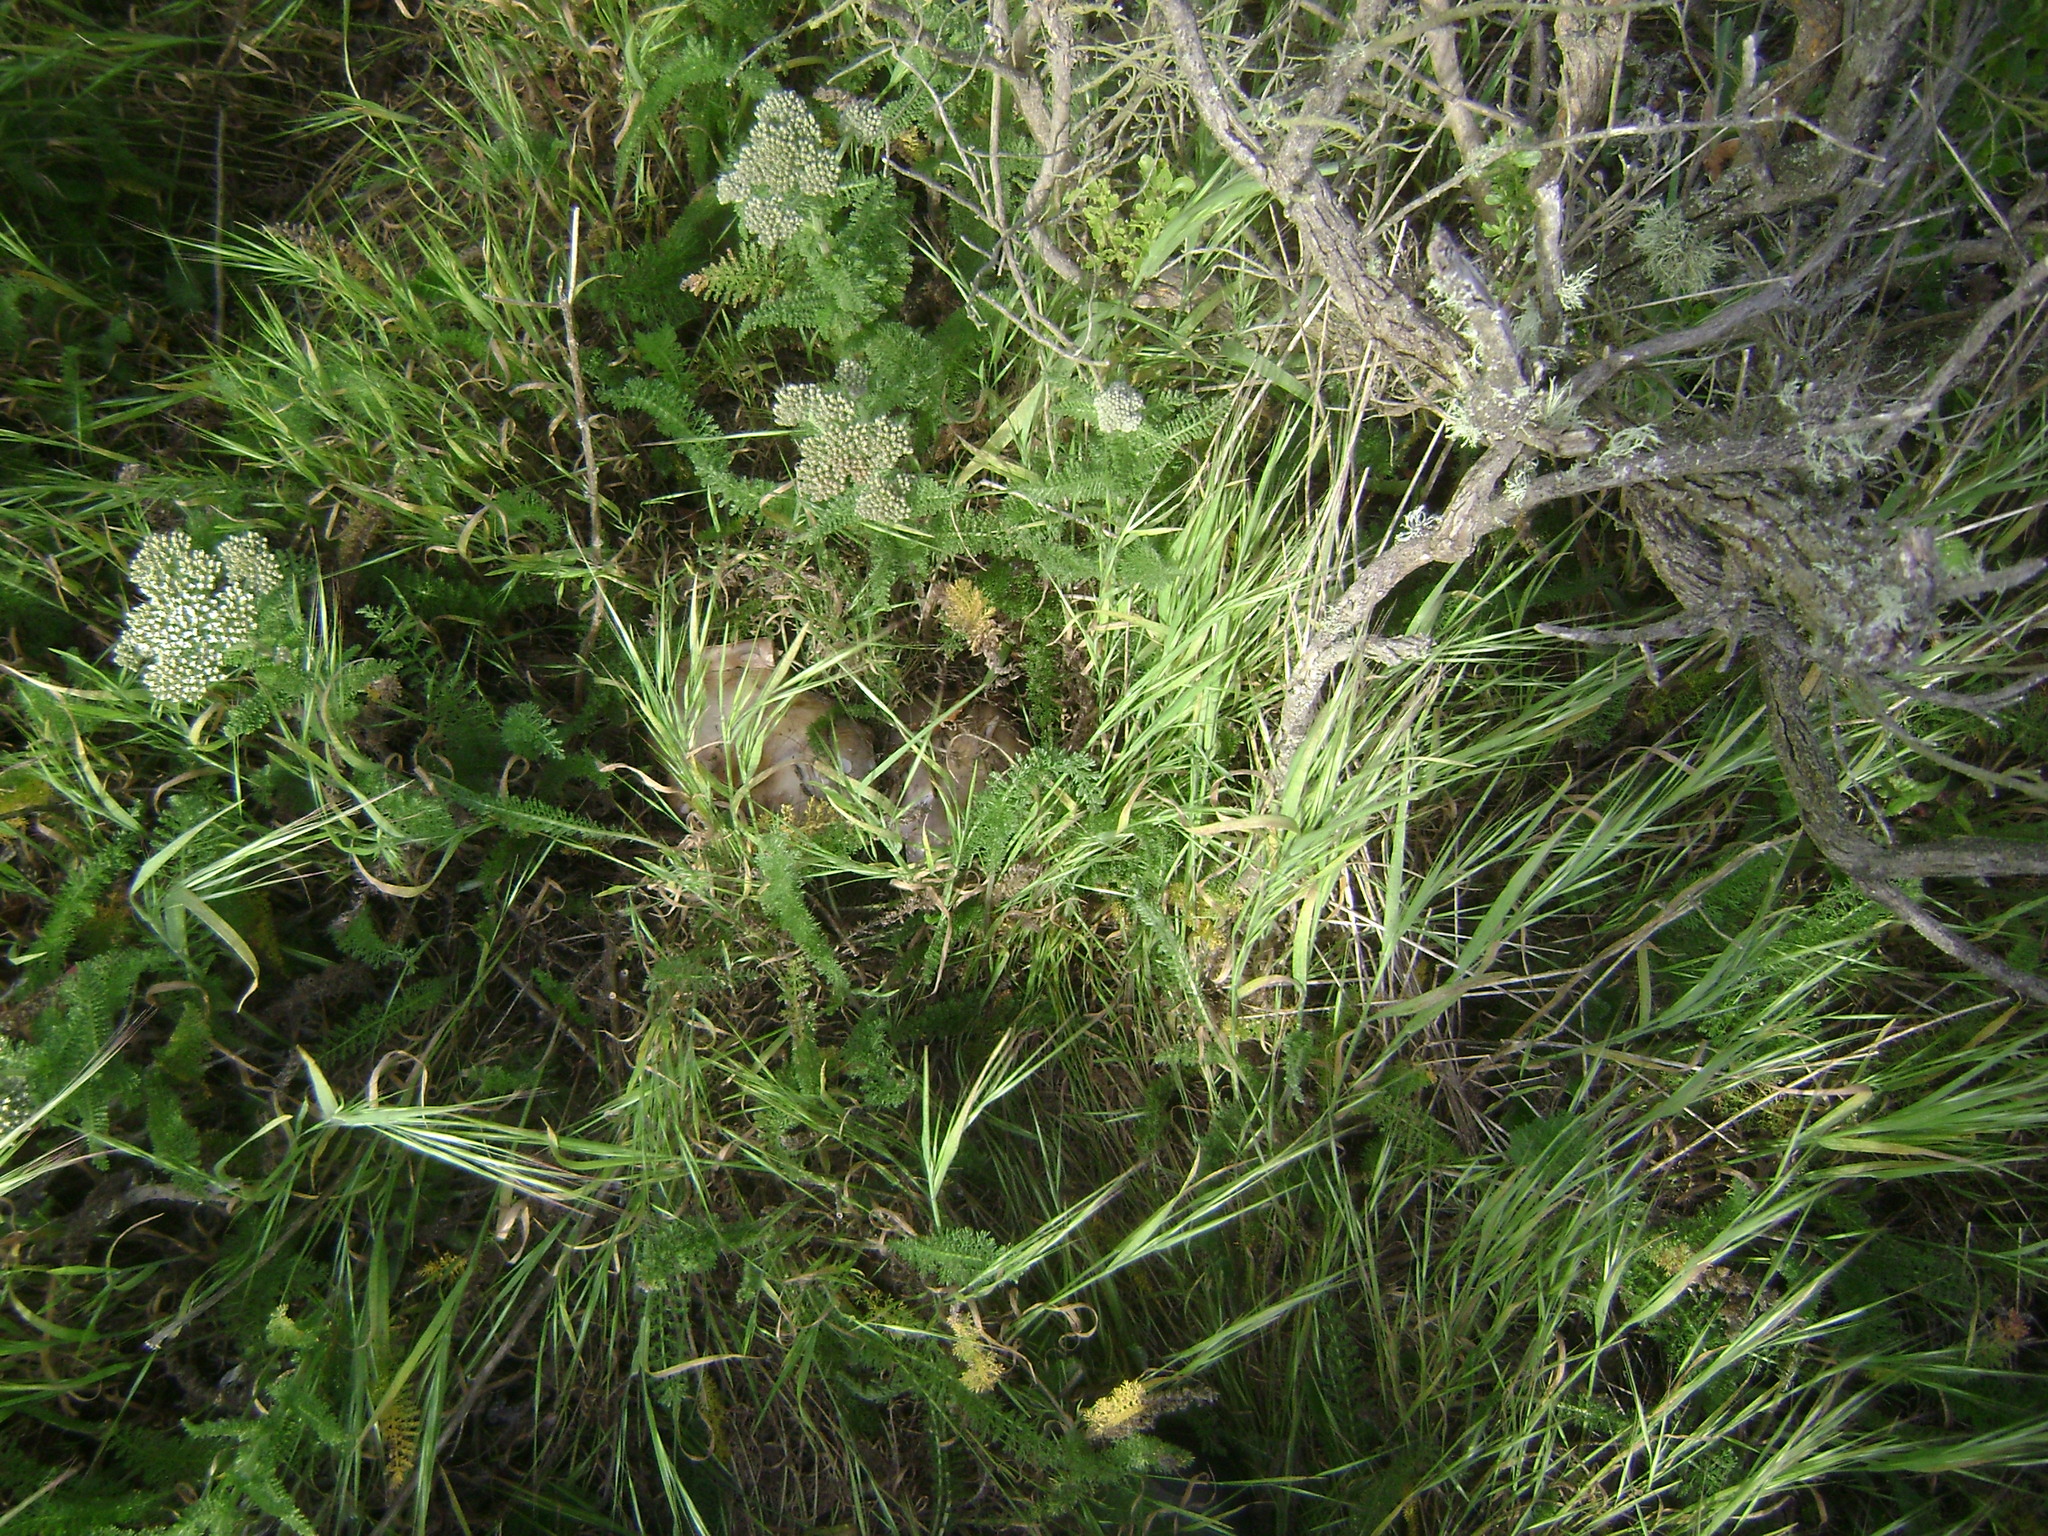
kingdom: Plantae
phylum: Tracheophyta
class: Magnoliopsida
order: Asterales
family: Asteraceae
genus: Achillea
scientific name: Achillea millefolium
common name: Yarrow
